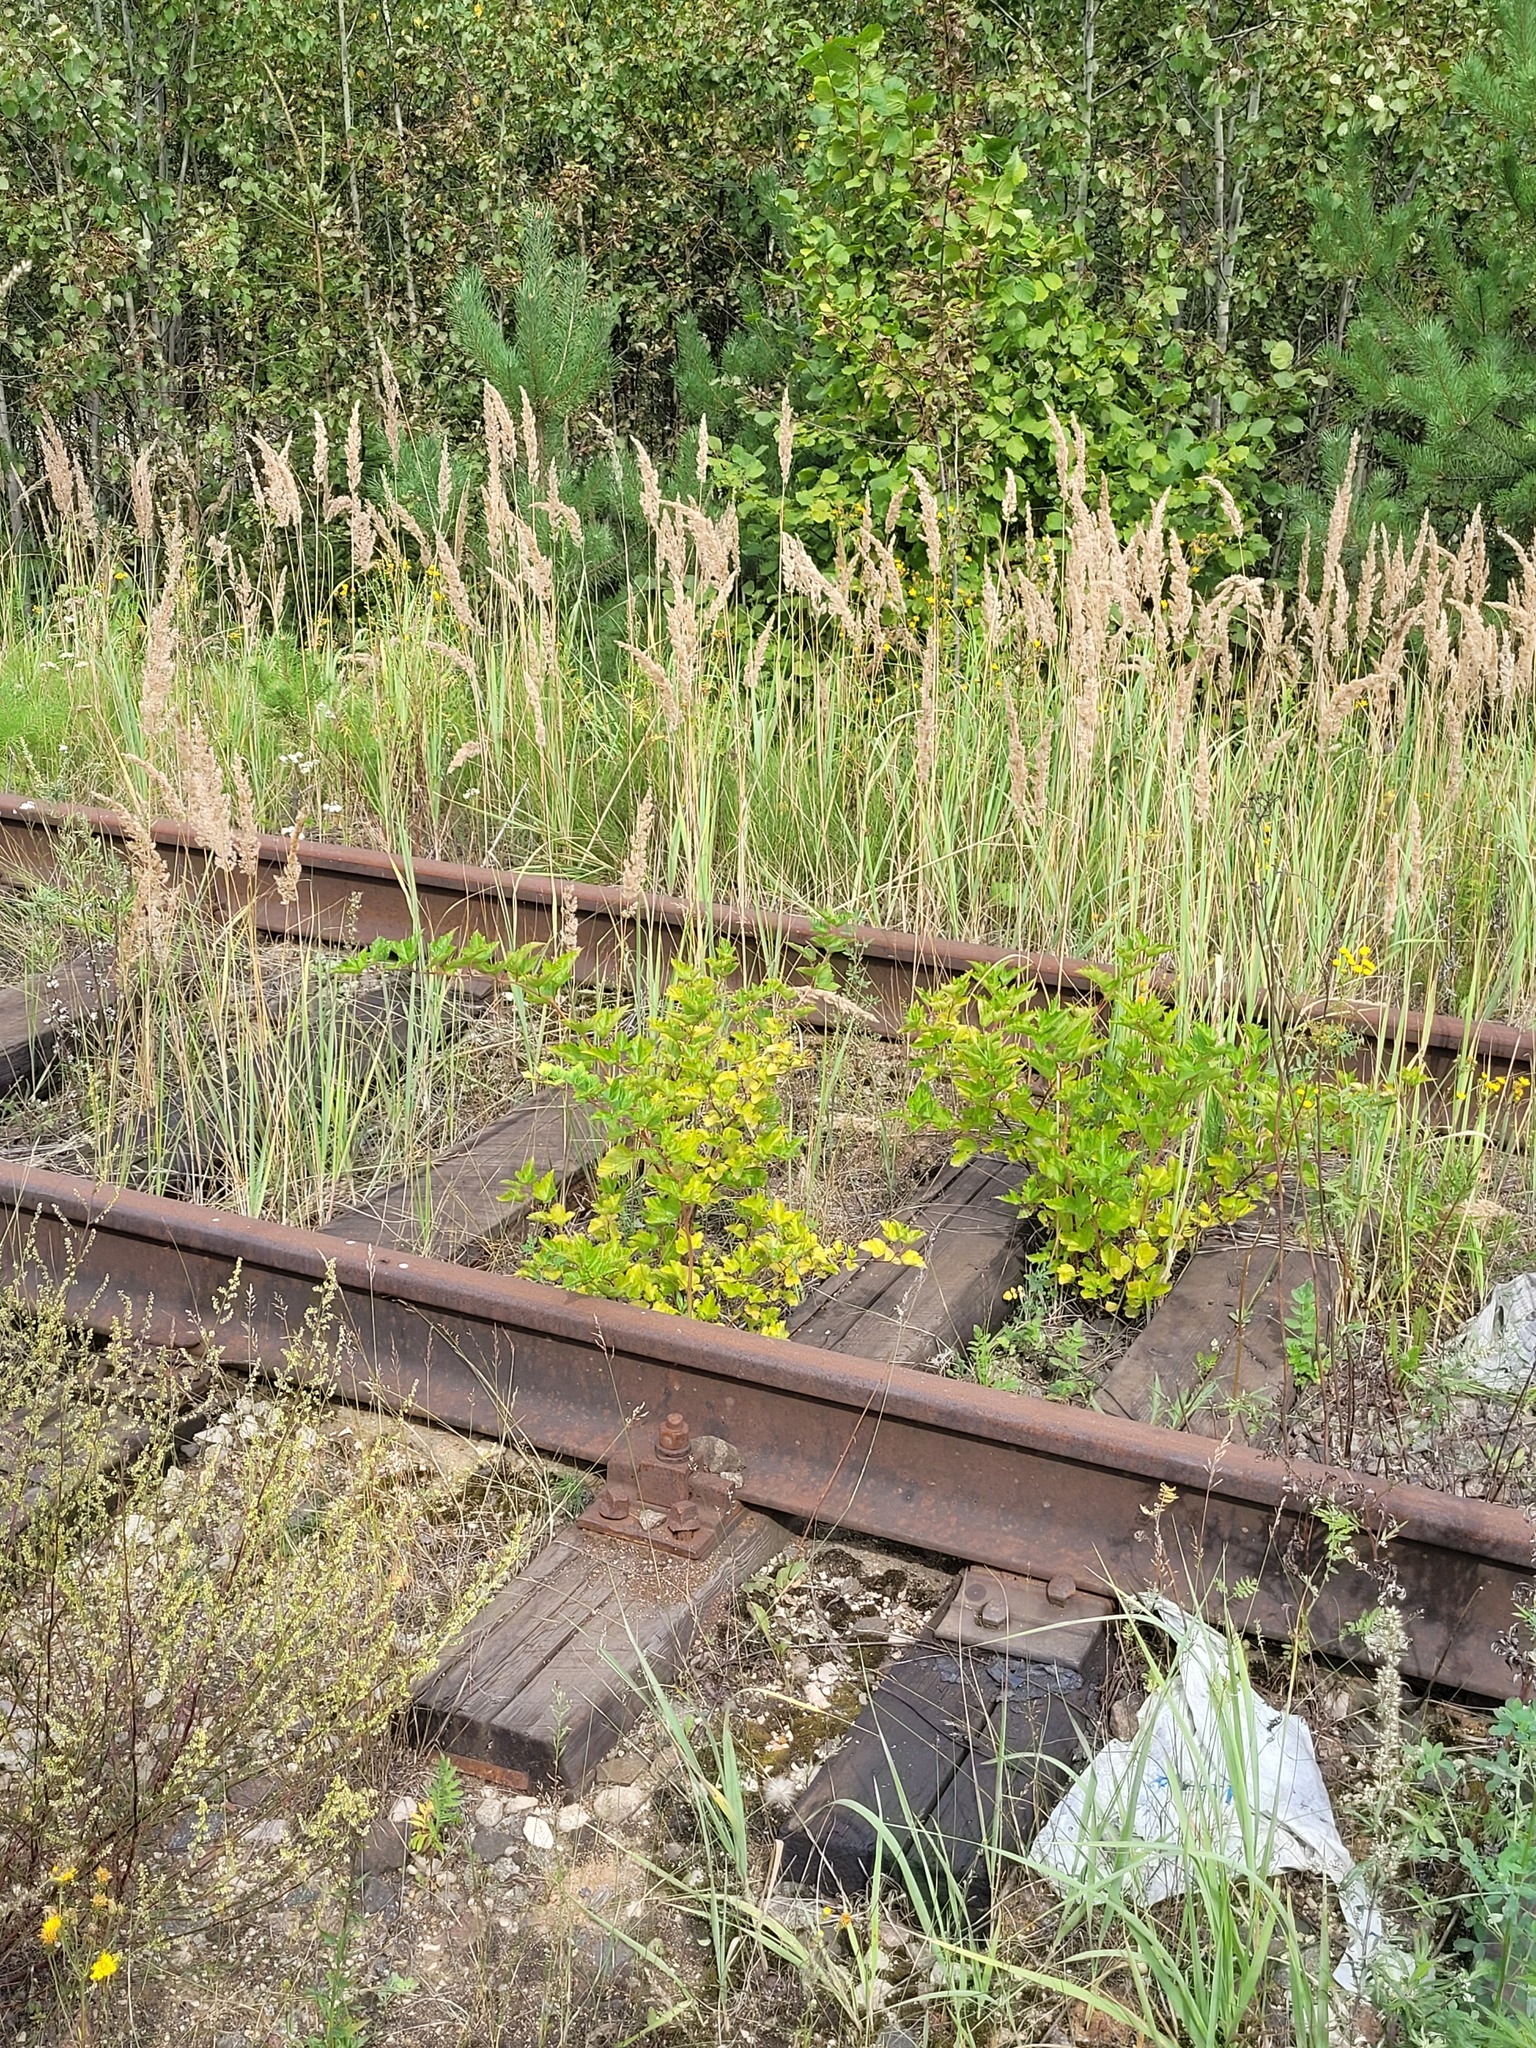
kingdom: Plantae
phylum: Tracheophyta
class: Magnoliopsida
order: Rosales
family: Rosaceae
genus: Physocarpus
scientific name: Physocarpus opulifolius
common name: Ninebark
